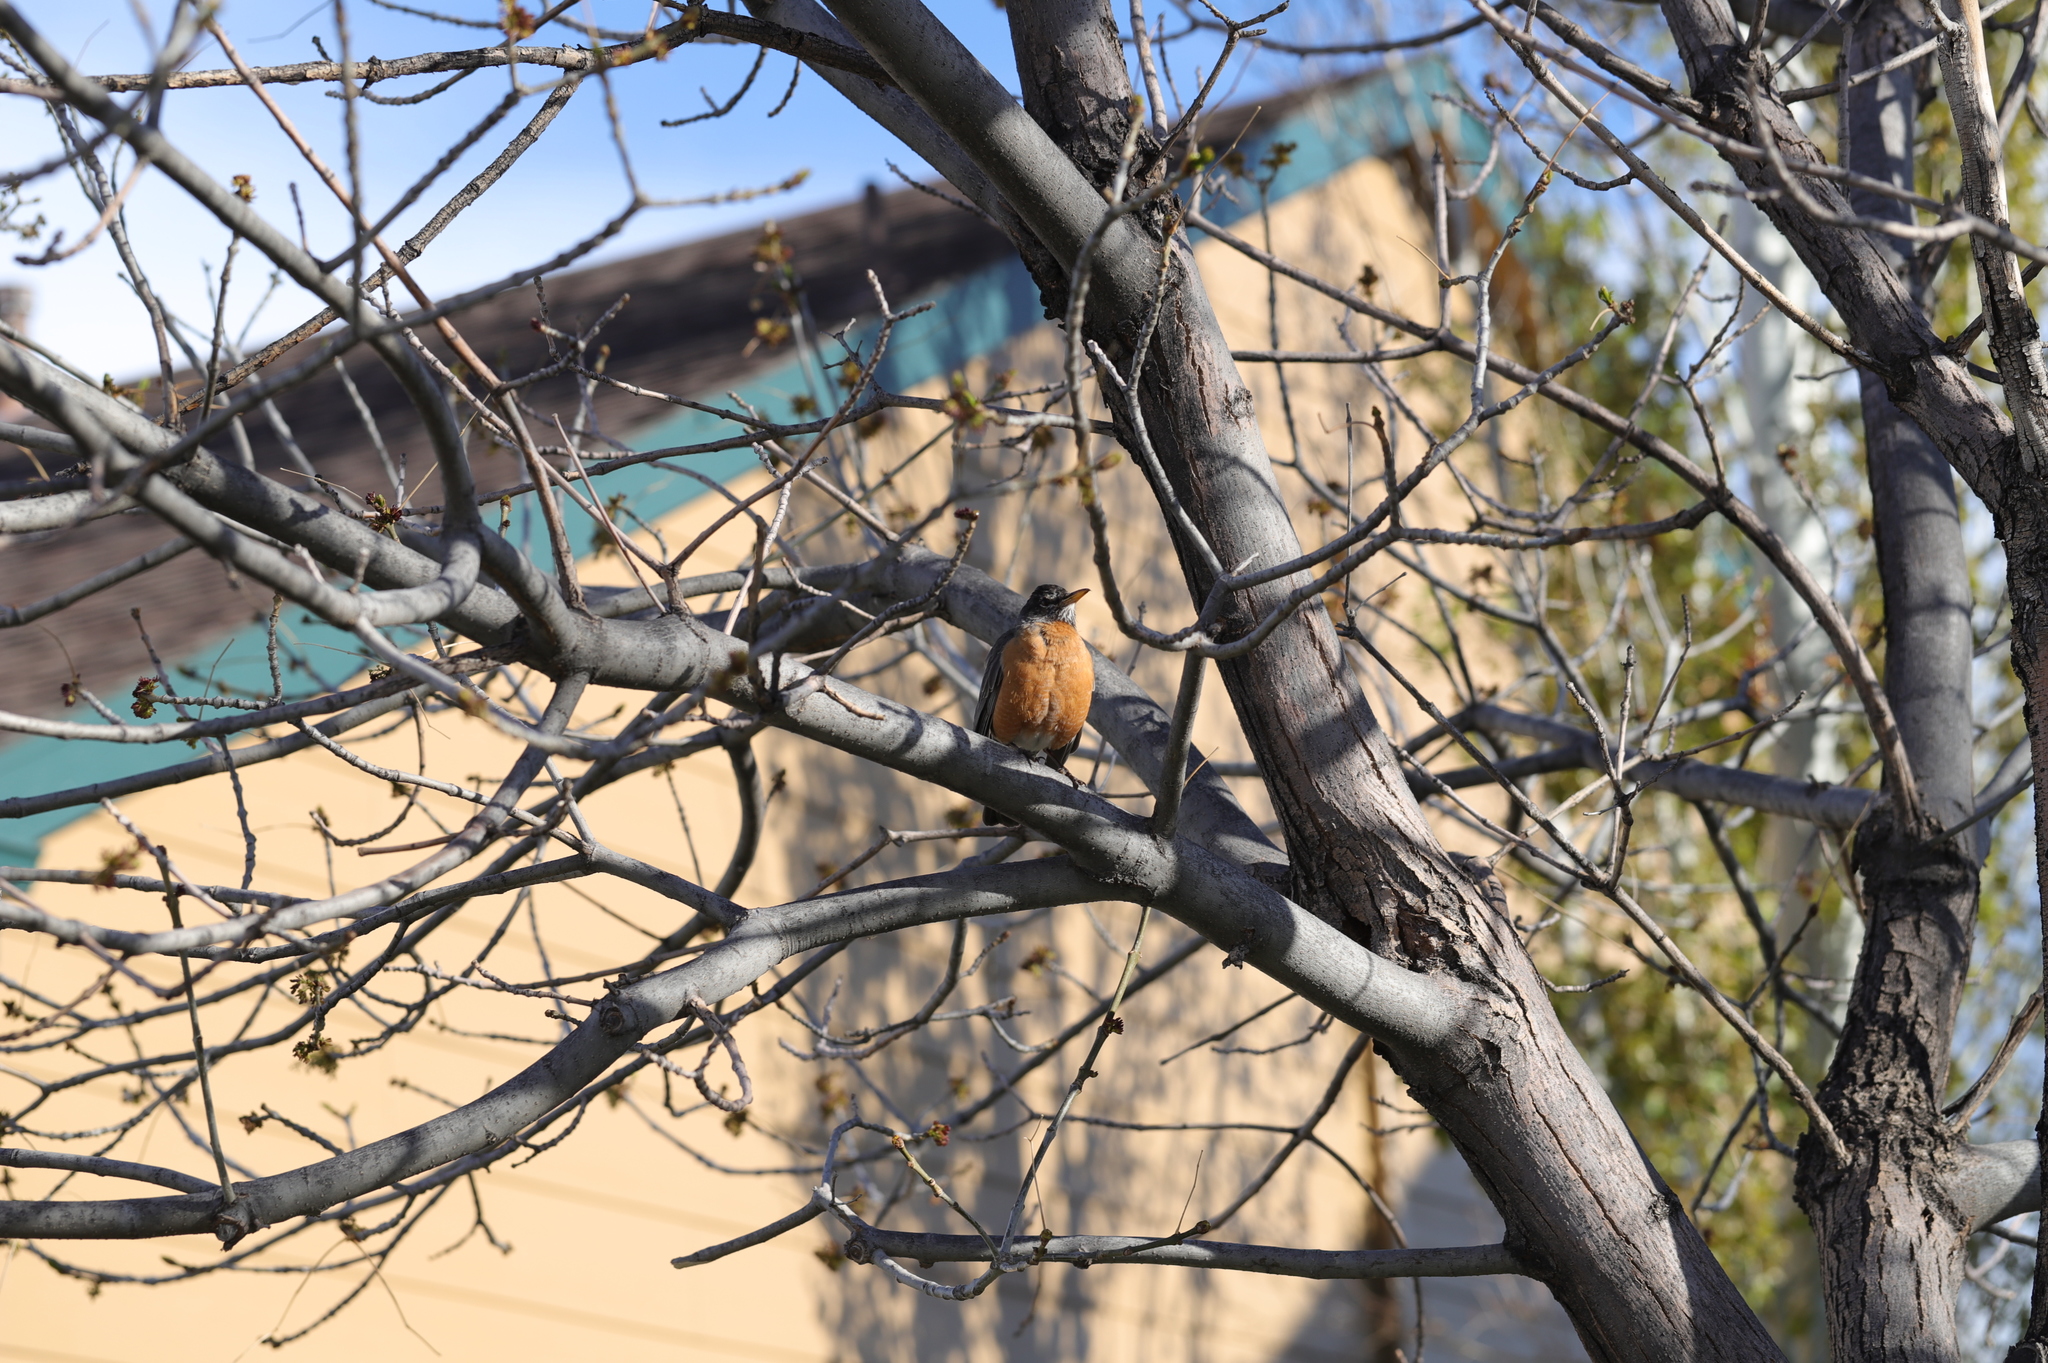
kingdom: Animalia
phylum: Chordata
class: Aves
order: Passeriformes
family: Turdidae
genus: Turdus
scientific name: Turdus migratorius
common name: American robin
